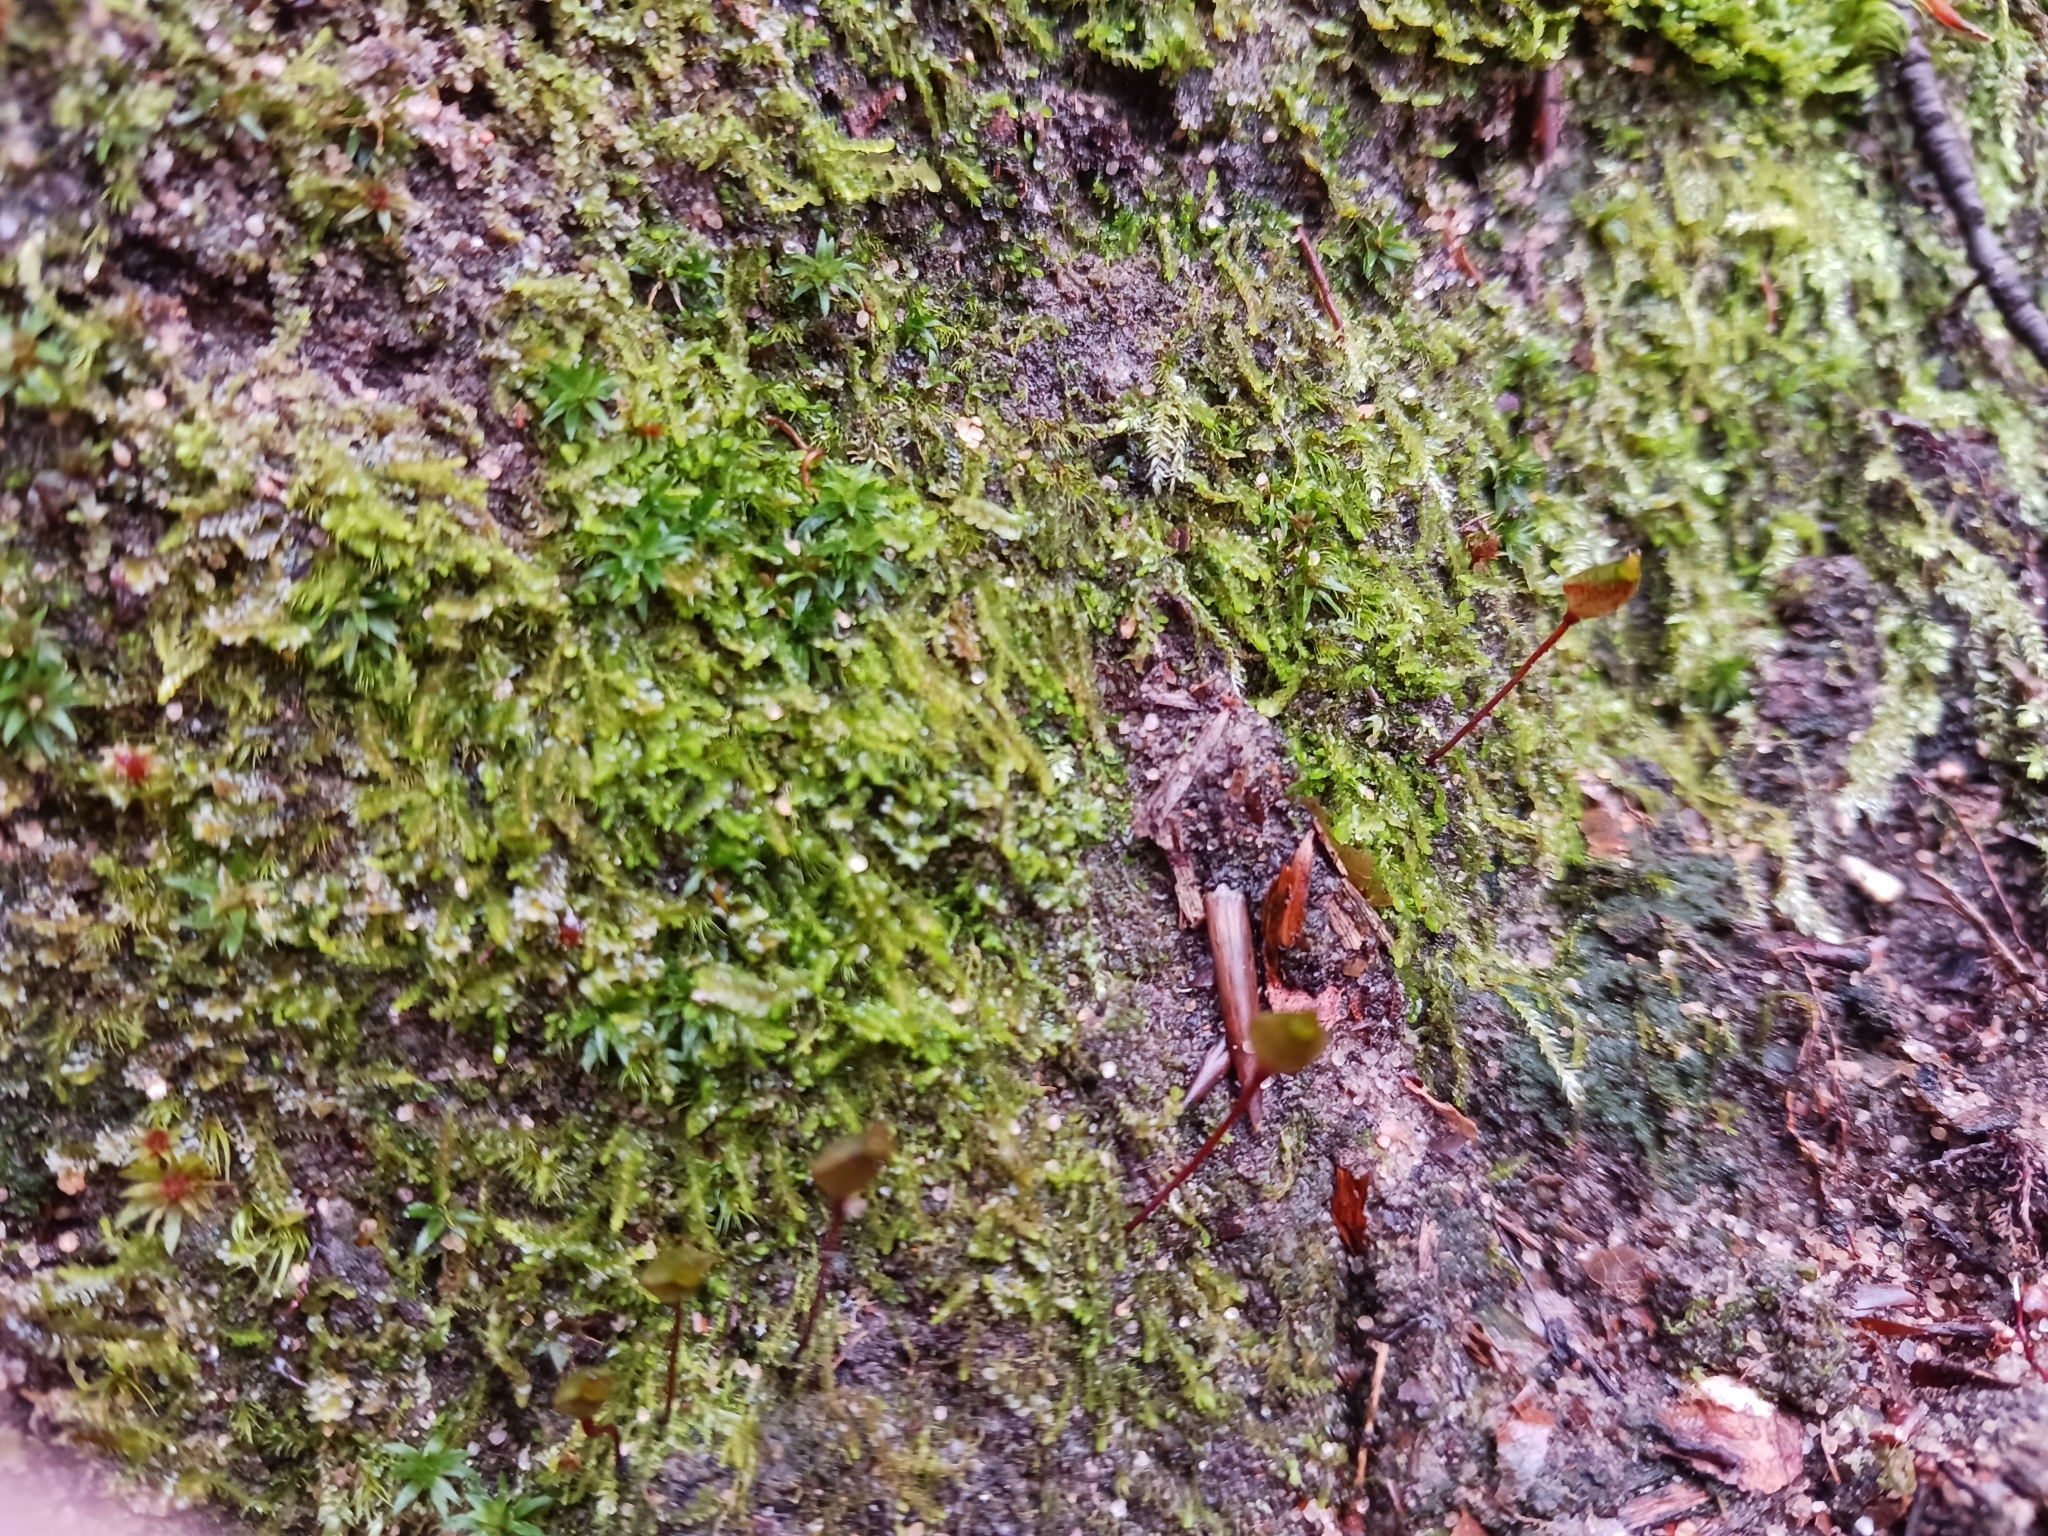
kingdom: Plantae
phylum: Bryophyta
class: Bryopsida
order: Buxbaumiales
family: Buxbaumiaceae
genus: Buxbaumia
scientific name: Buxbaumia aphylla
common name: Brown shield-moss
